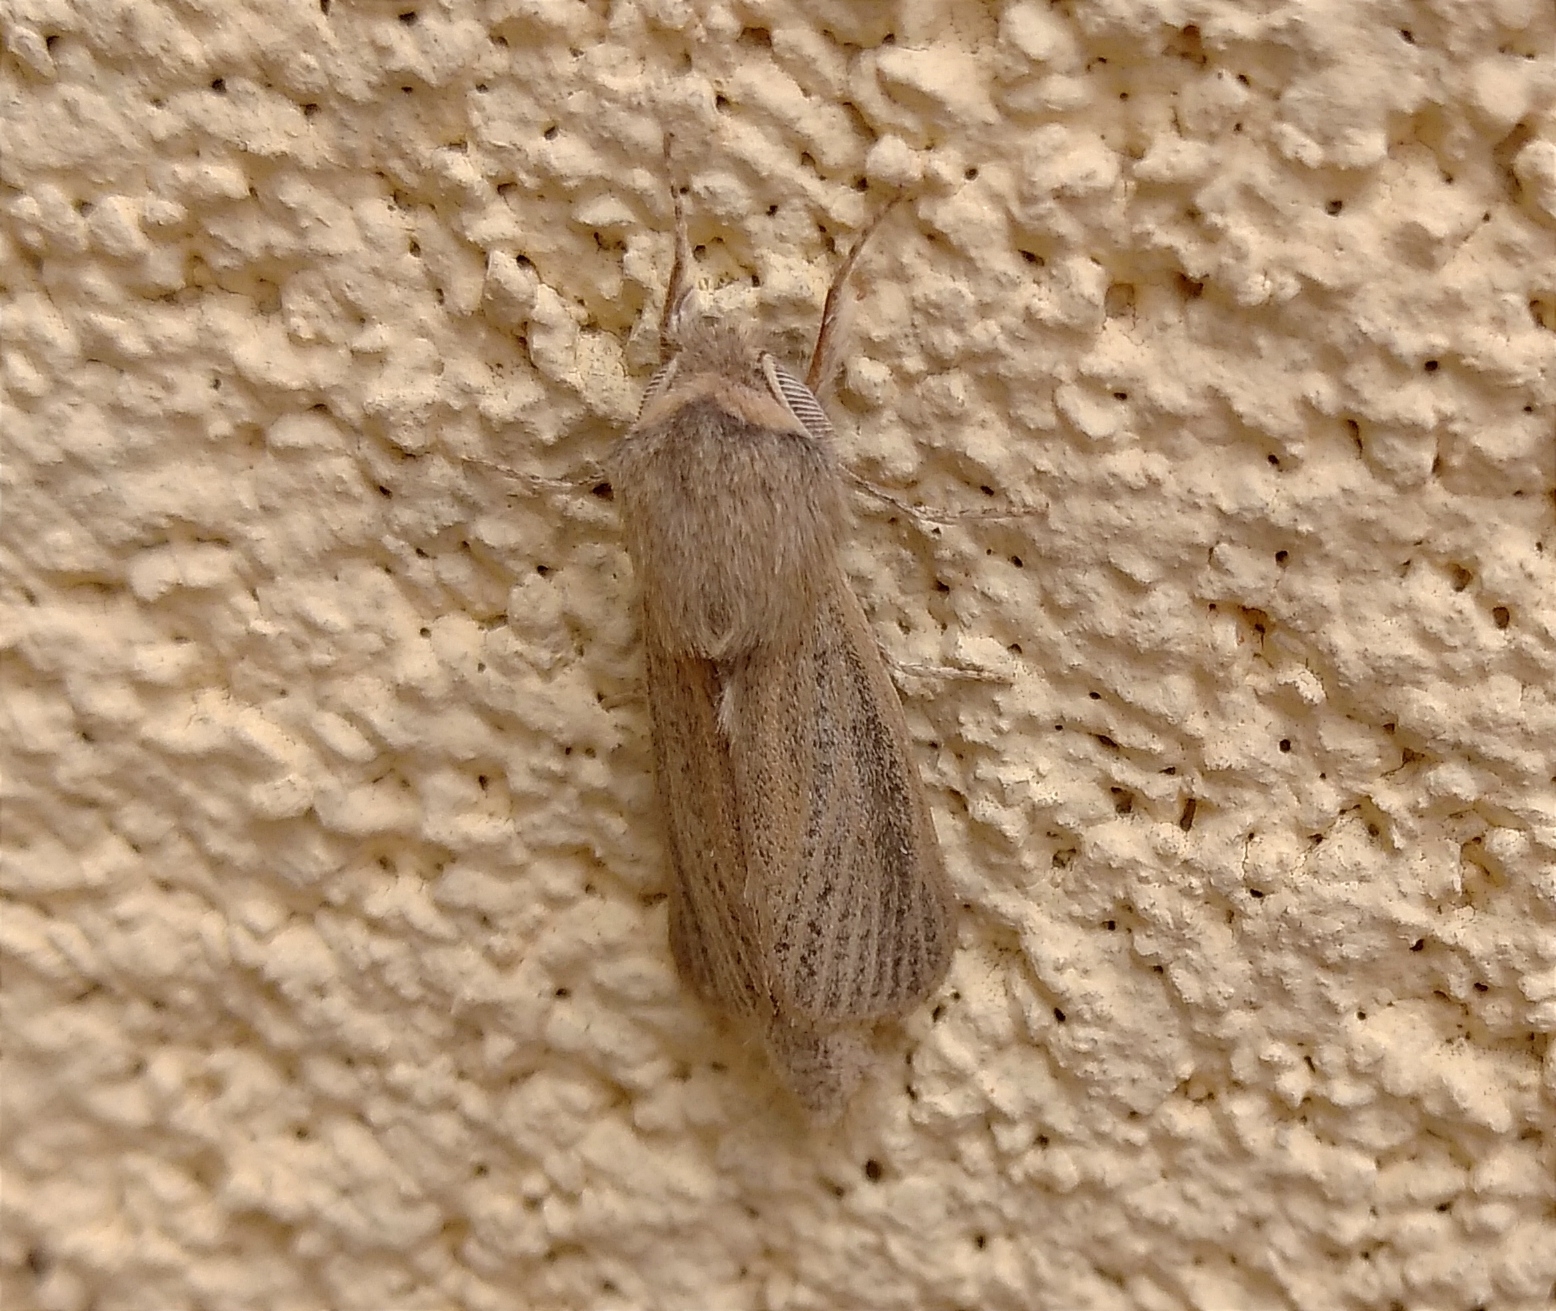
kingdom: Animalia
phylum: Arthropoda
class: Insecta
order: Lepidoptera
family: Cossidae
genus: Phragmataecia
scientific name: Phragmataecia castaneae
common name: Reed leopard
